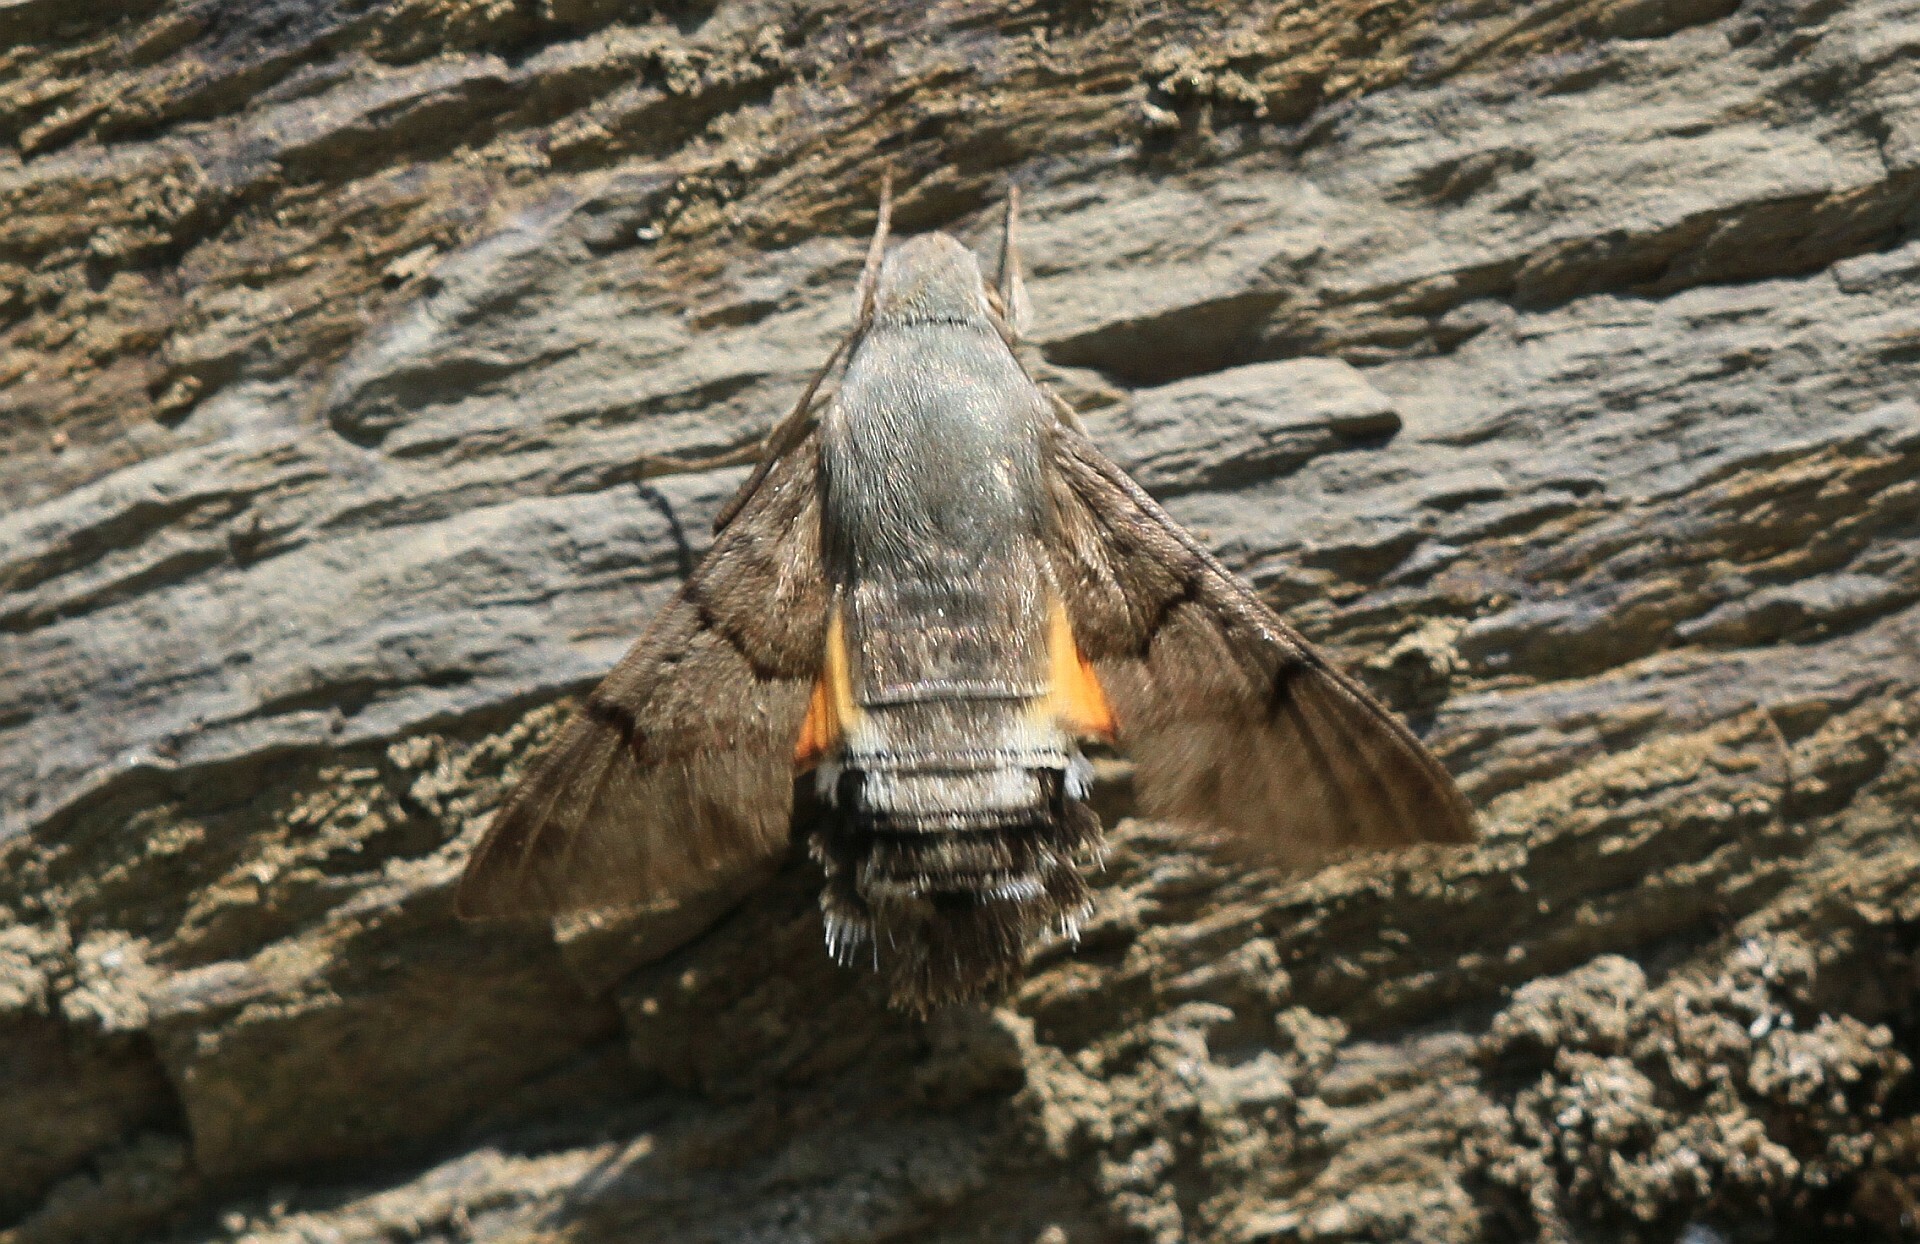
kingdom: Animalia
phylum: Arthropoda
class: Insecta
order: Lepidoptera
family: Sphingidae
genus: Macroglossum
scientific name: Macroglossum stellatarum
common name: Humming-bird hawk-moth
